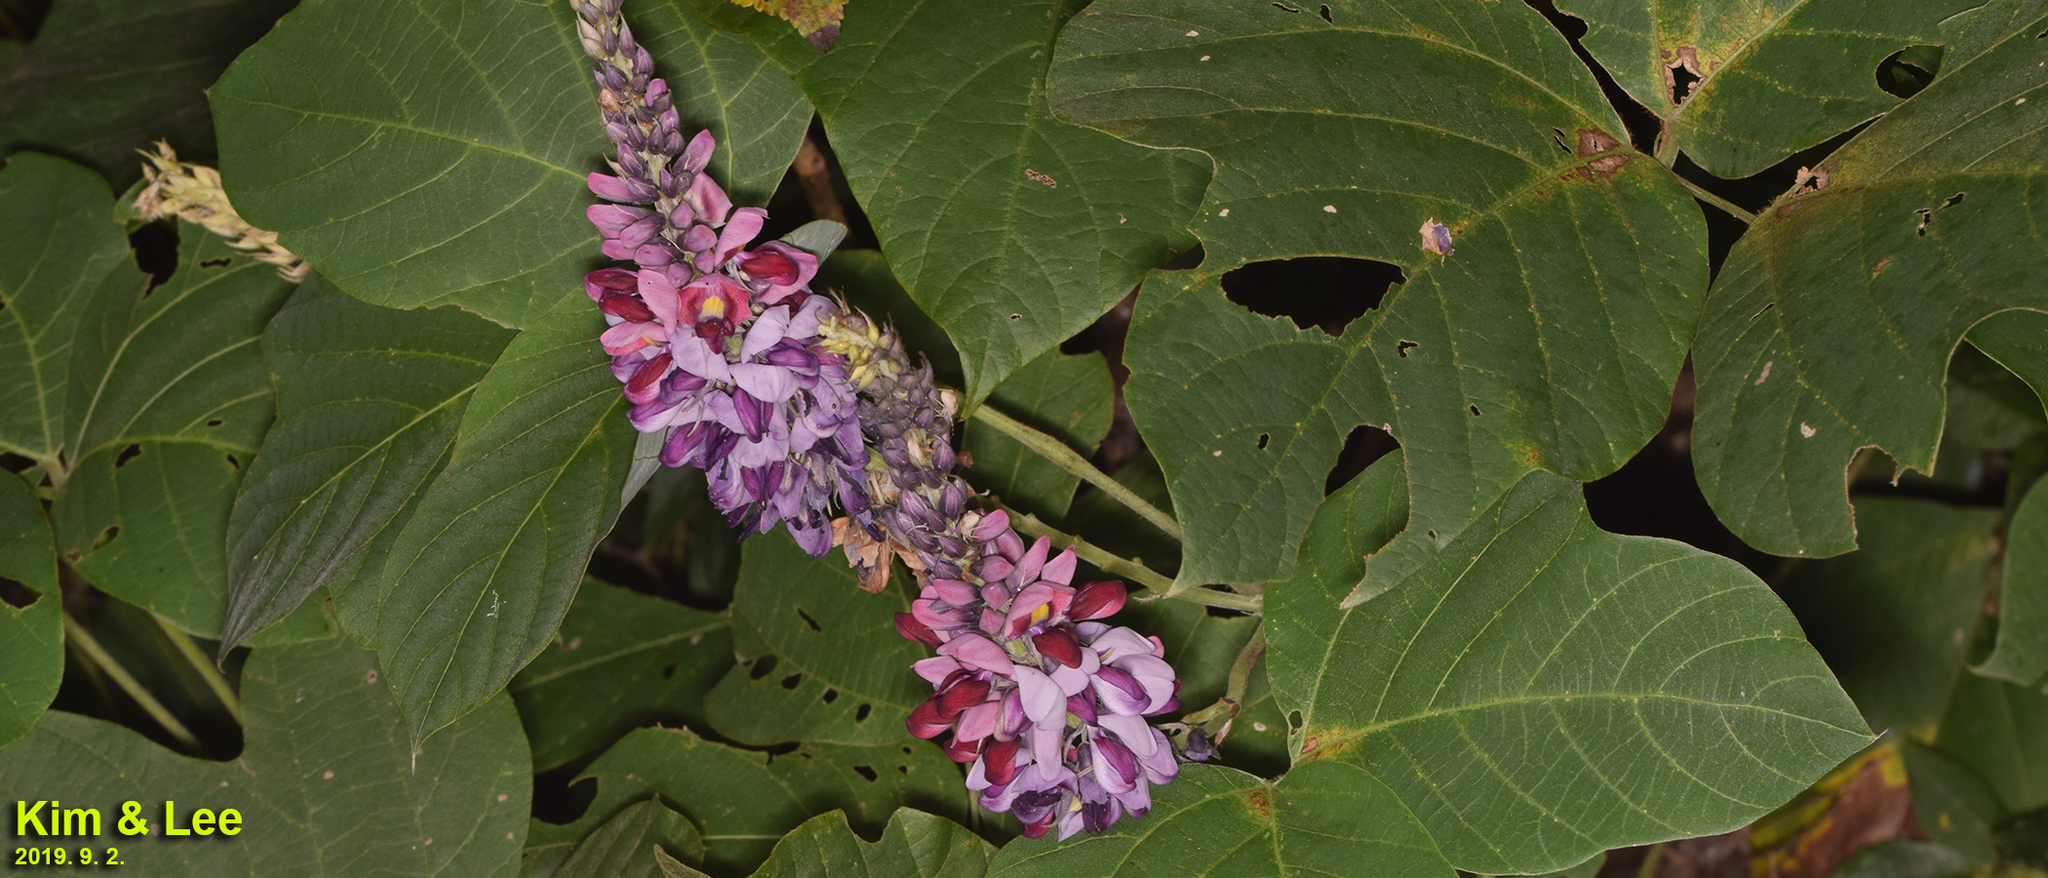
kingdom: Plantae
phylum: Tracheophyta
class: Magnoliopsida
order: Fabales
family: Fabaceae
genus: Pueraria
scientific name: Pueraria montana
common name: Kudzu
